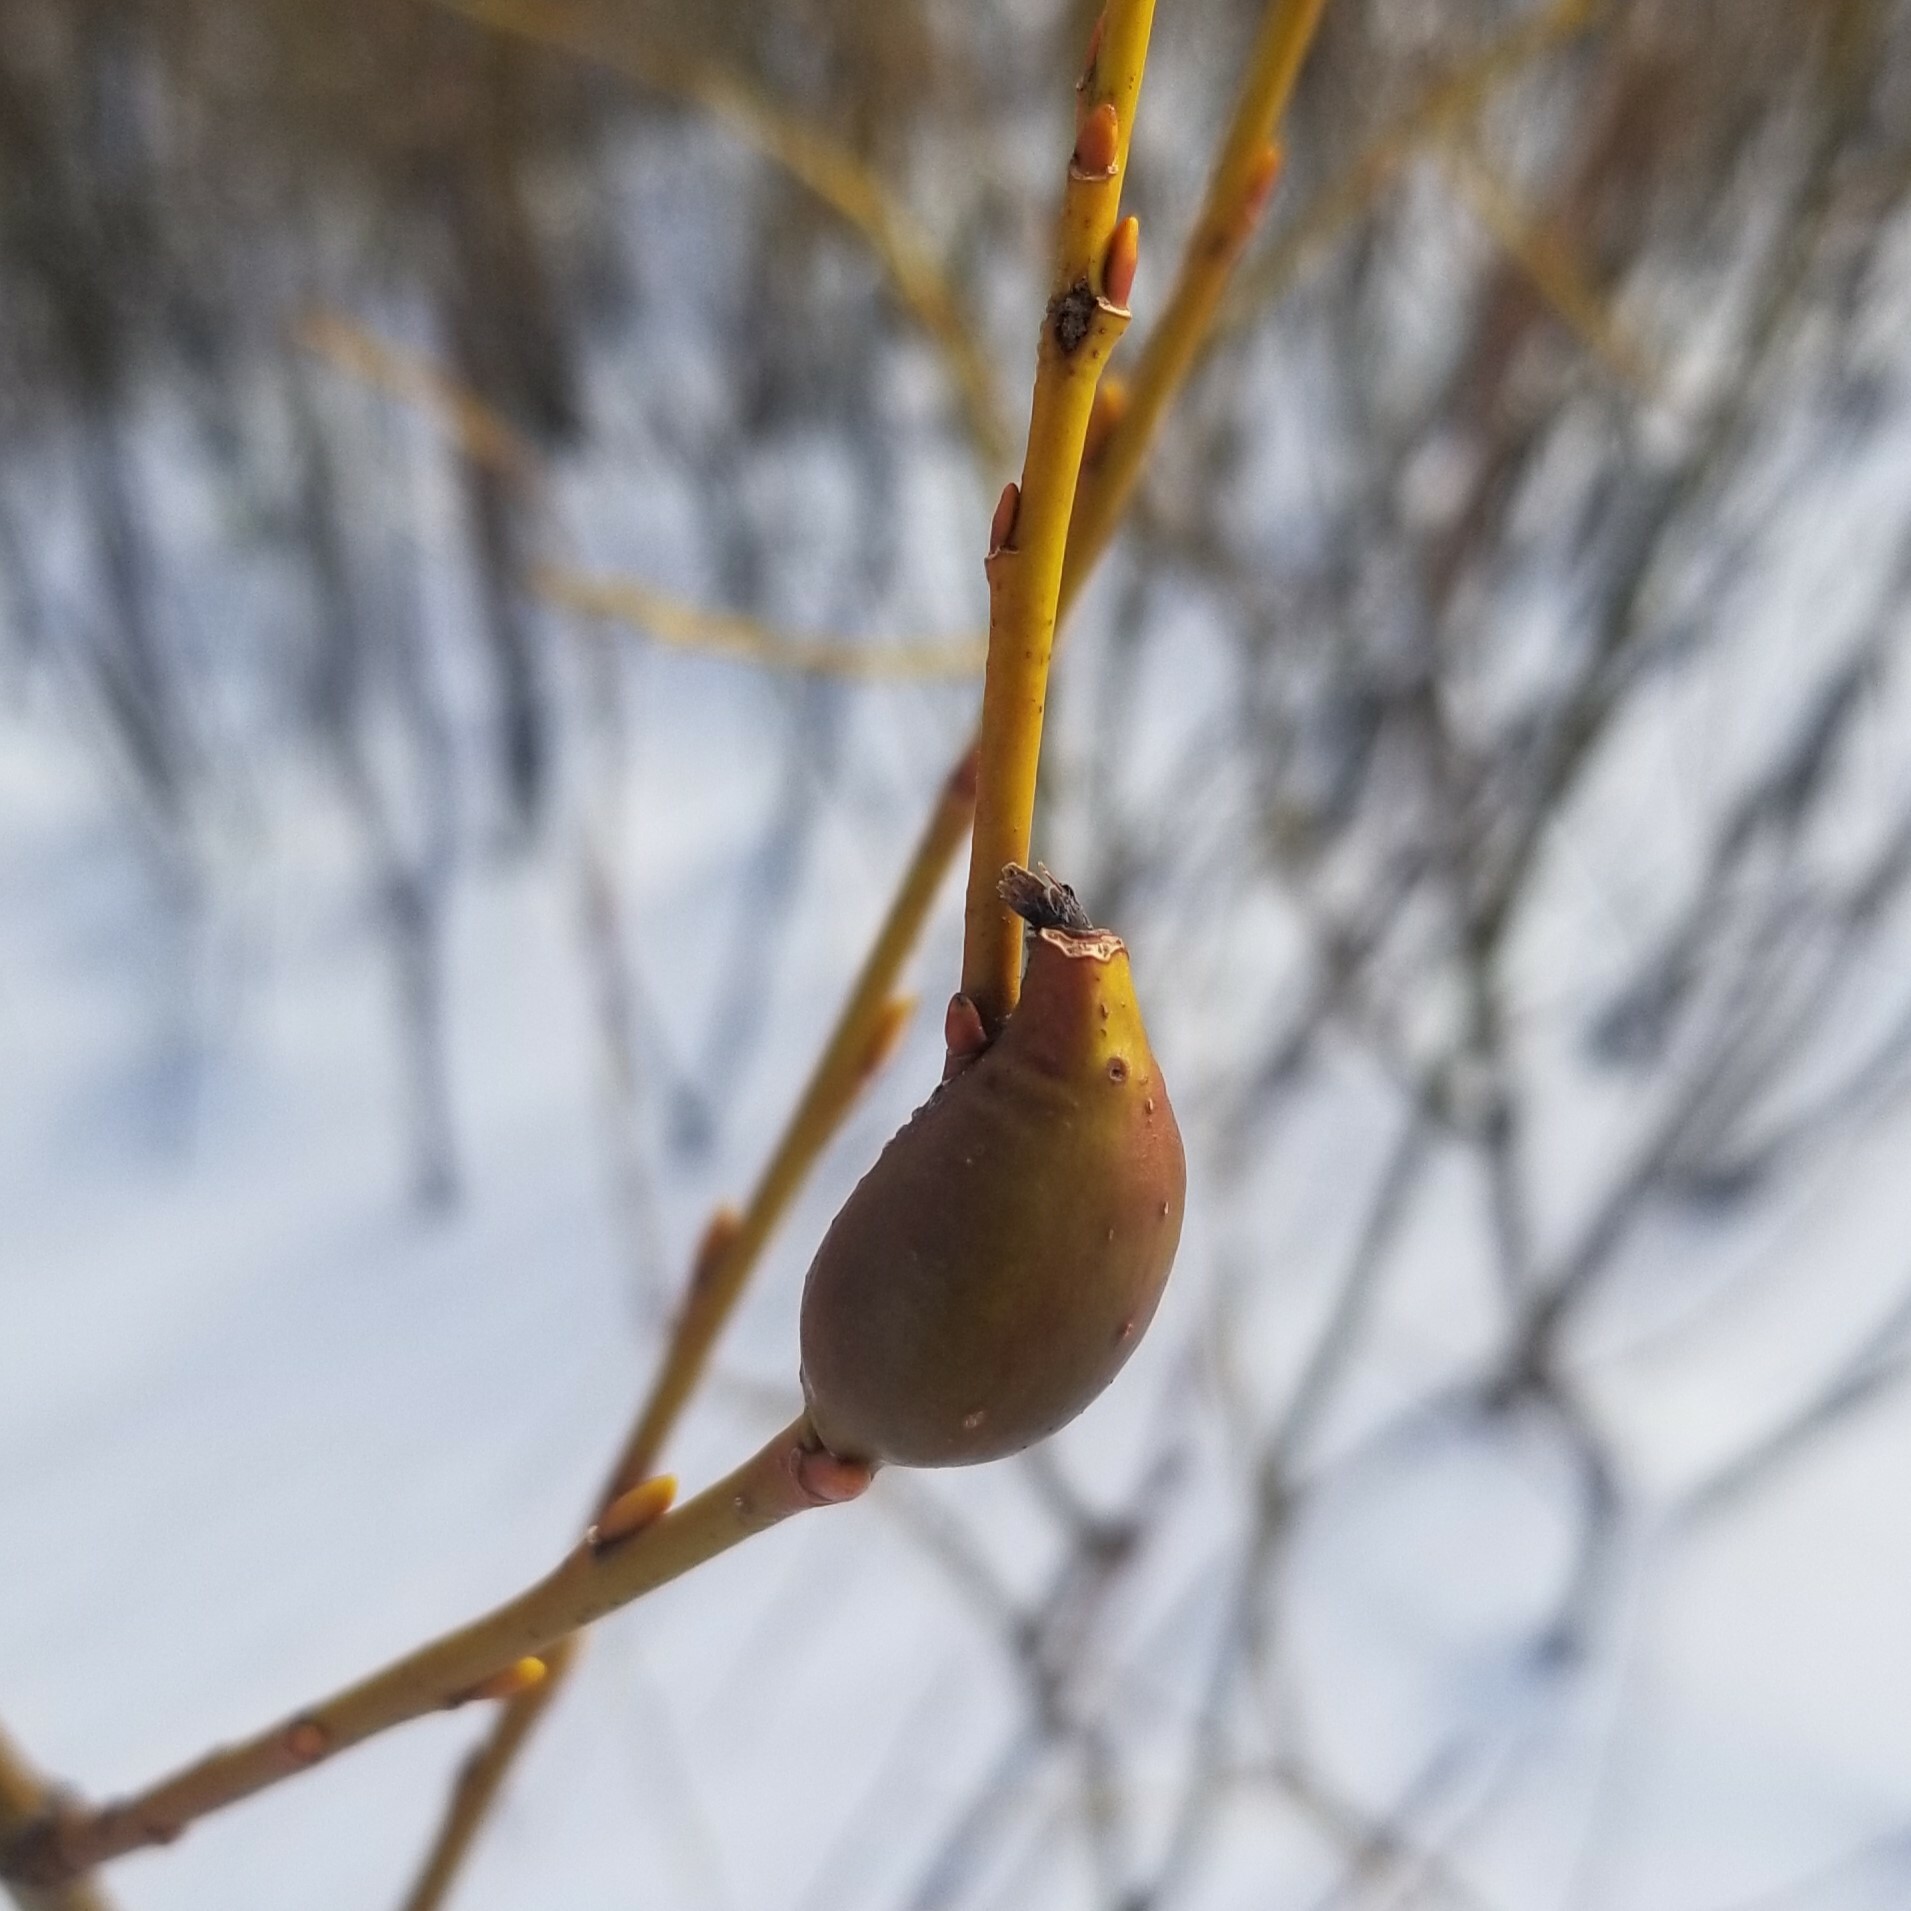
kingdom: Animalia
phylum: Arthropoda
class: Insecta
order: Diptera
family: Cecidomyiidae
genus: Thecodiplosis
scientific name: Thecodiplosis pinirigidae
